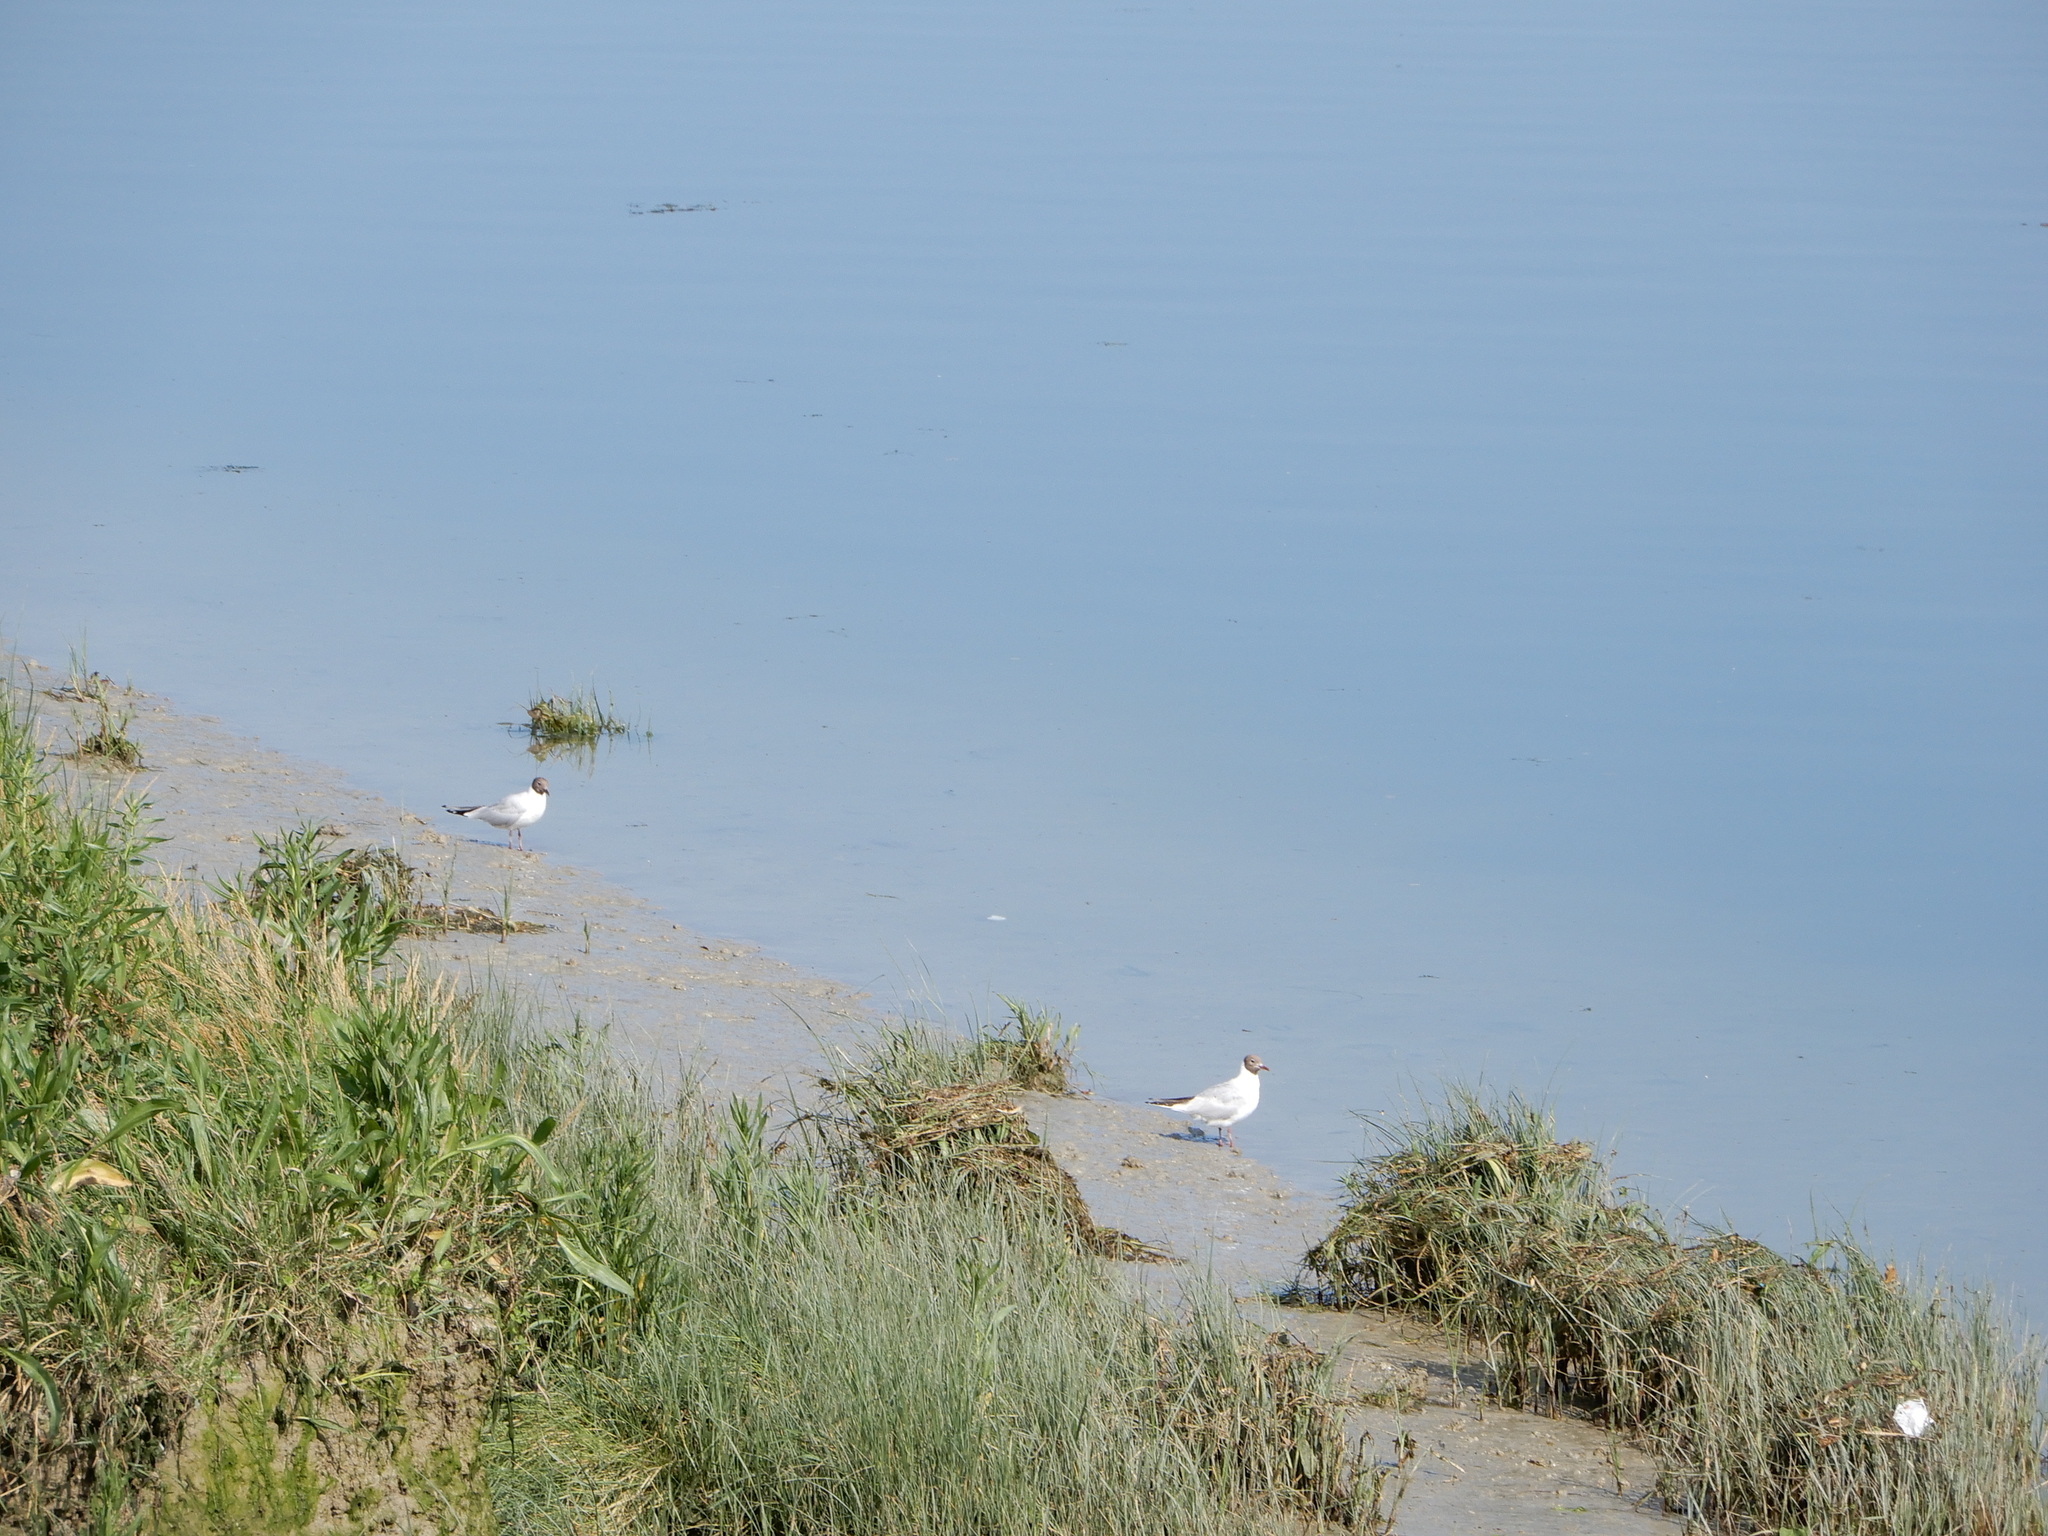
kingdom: Animalia
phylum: Chordata
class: Aves
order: Charadriiformes
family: Laridae
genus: Chroicocephalus
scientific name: Chroicocephalus ridibundus
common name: Black-headed gull
